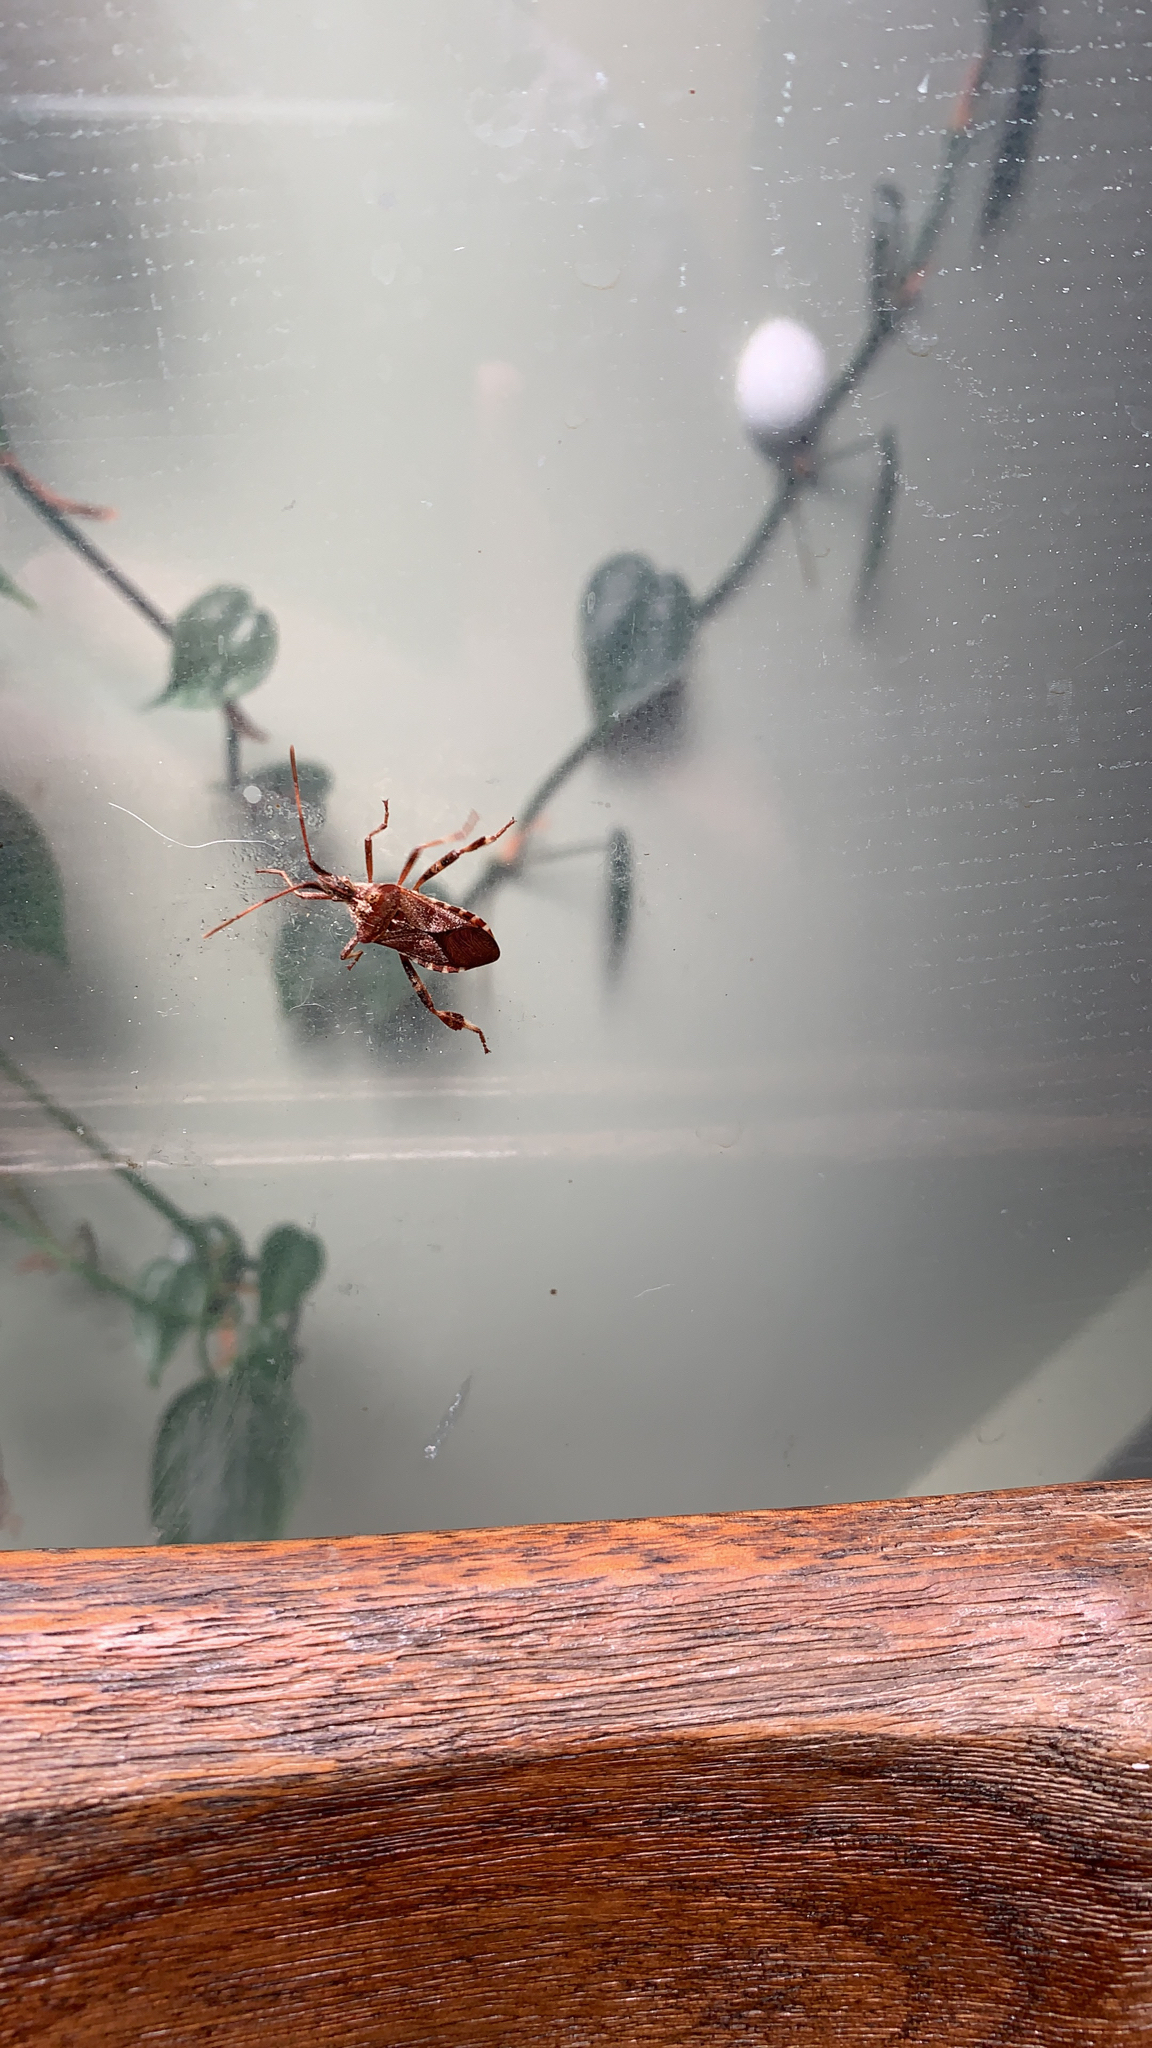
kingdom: Animalia
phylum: Arthropoda
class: Insecta
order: Hemiptera
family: Coreidae
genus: Leptoglossus
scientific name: Leptoglossus occidentalis
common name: Western conifer-seed bug
